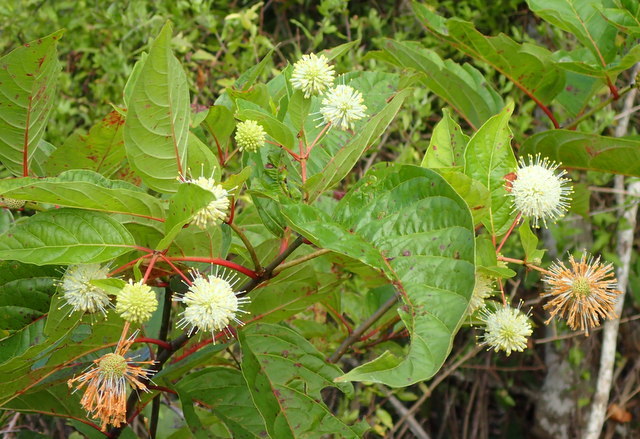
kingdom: Plantae
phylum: Tracheophyta
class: Magnoliopsida
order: Gentianales
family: Rubiaceae
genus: Cephalanthus
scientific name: Cephalanthus occidentalis
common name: Button-willow
